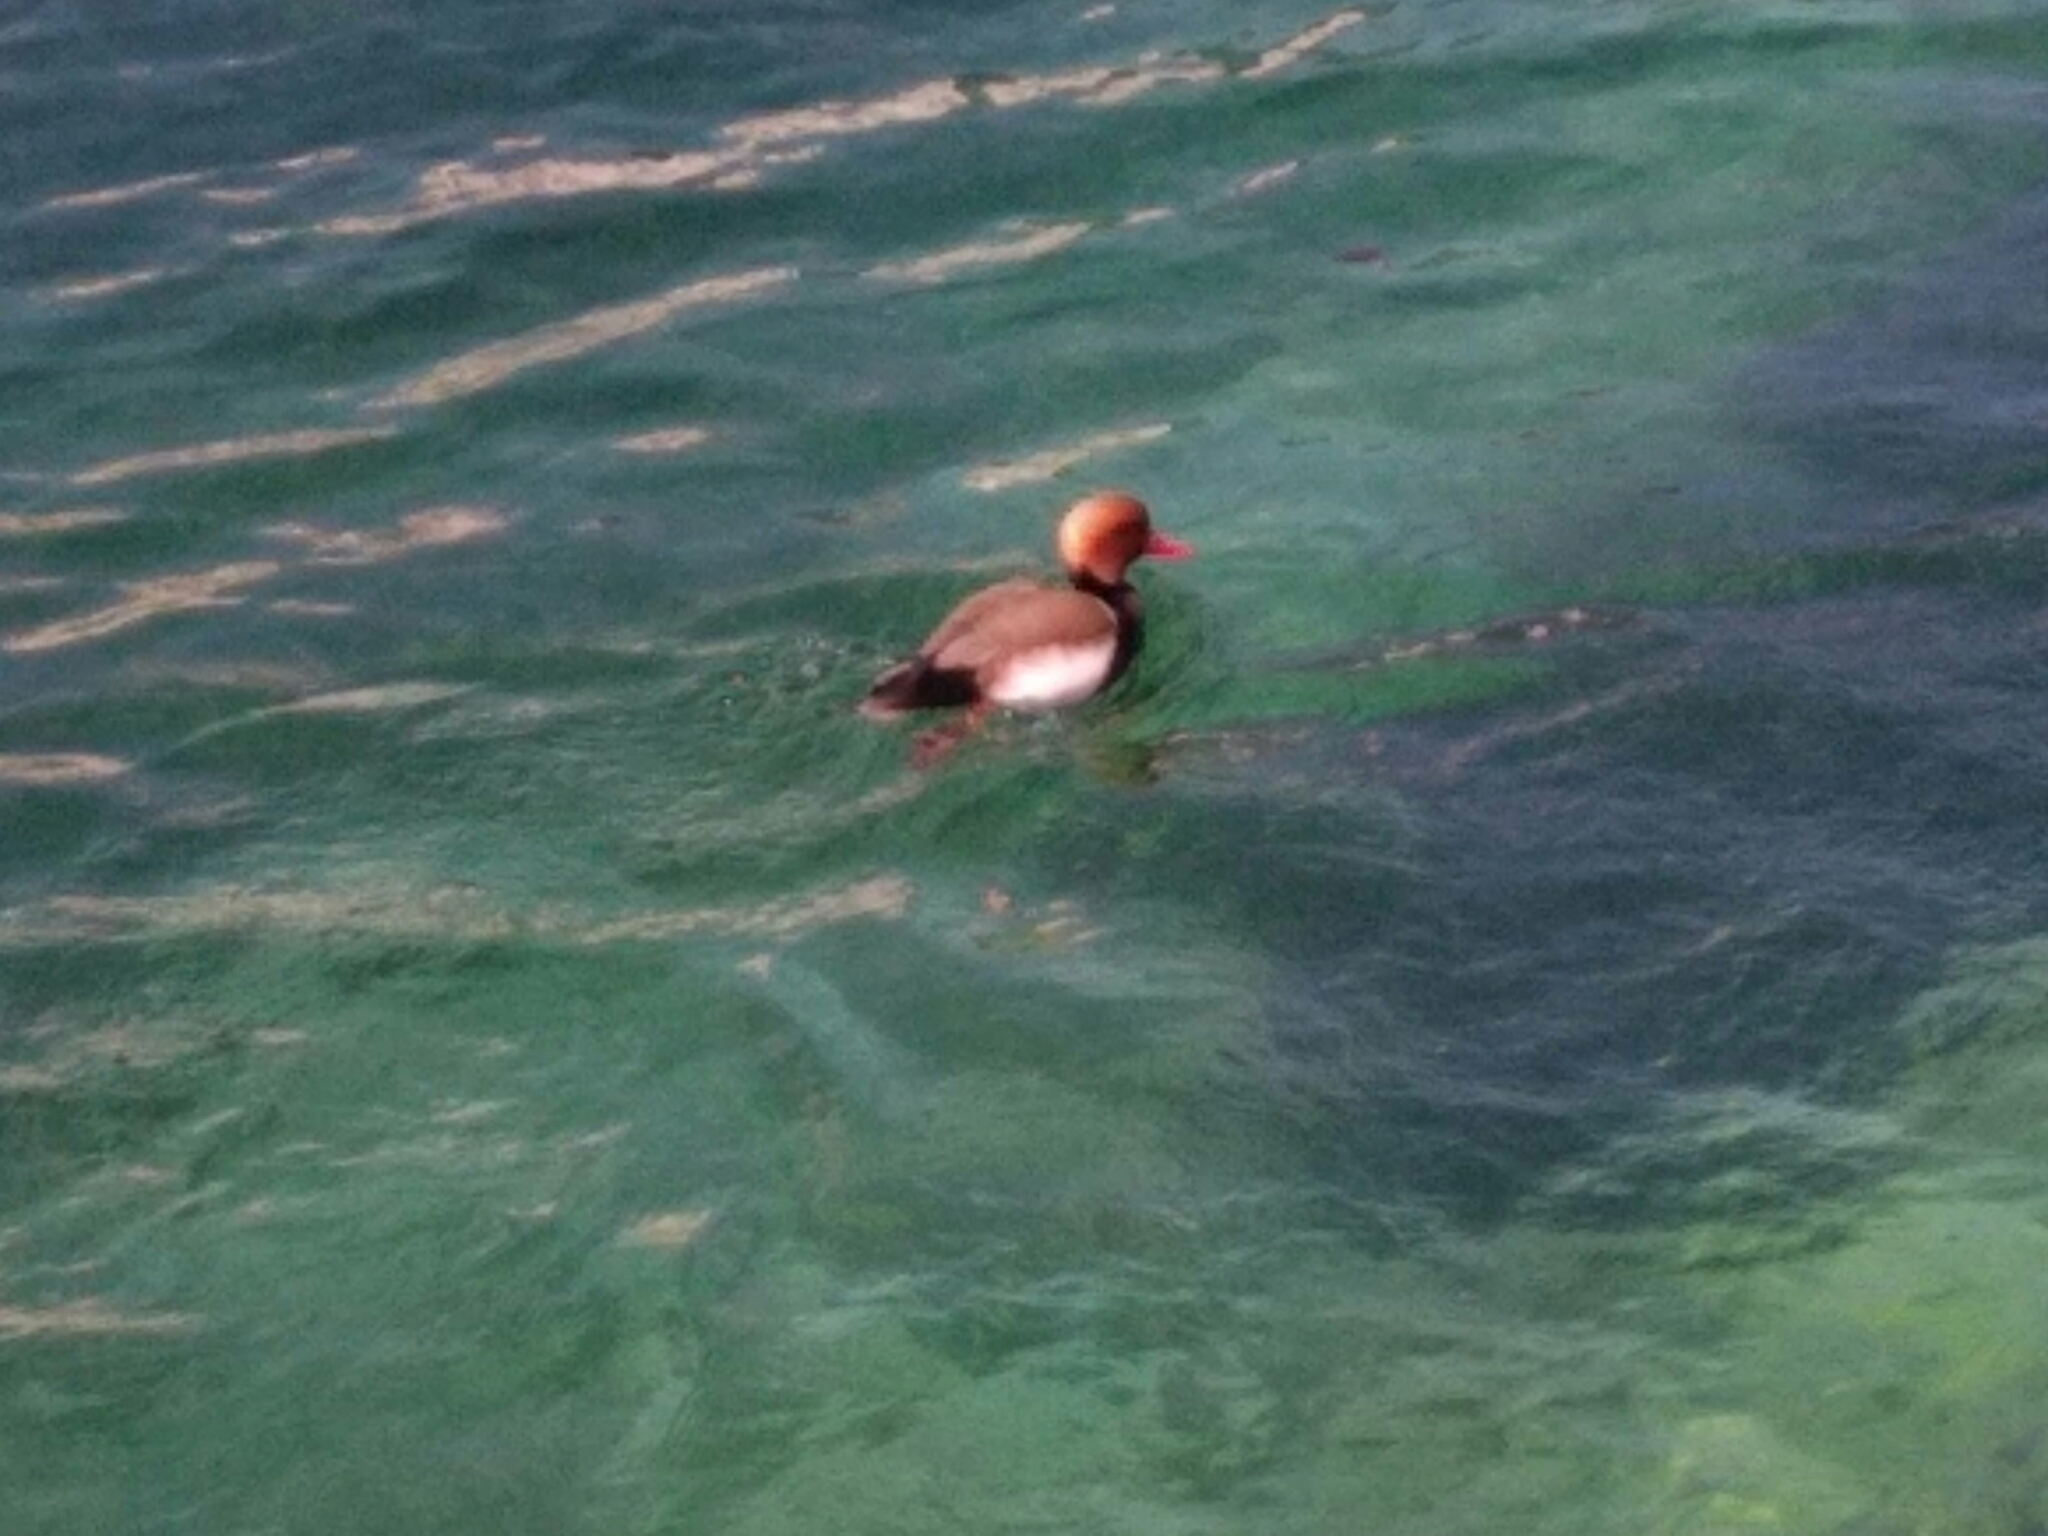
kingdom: Animalia
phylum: Chordata
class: Aves
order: Anseriformes
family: Anatidae
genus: Netta
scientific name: Netta rufina
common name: Red-crested pochard
